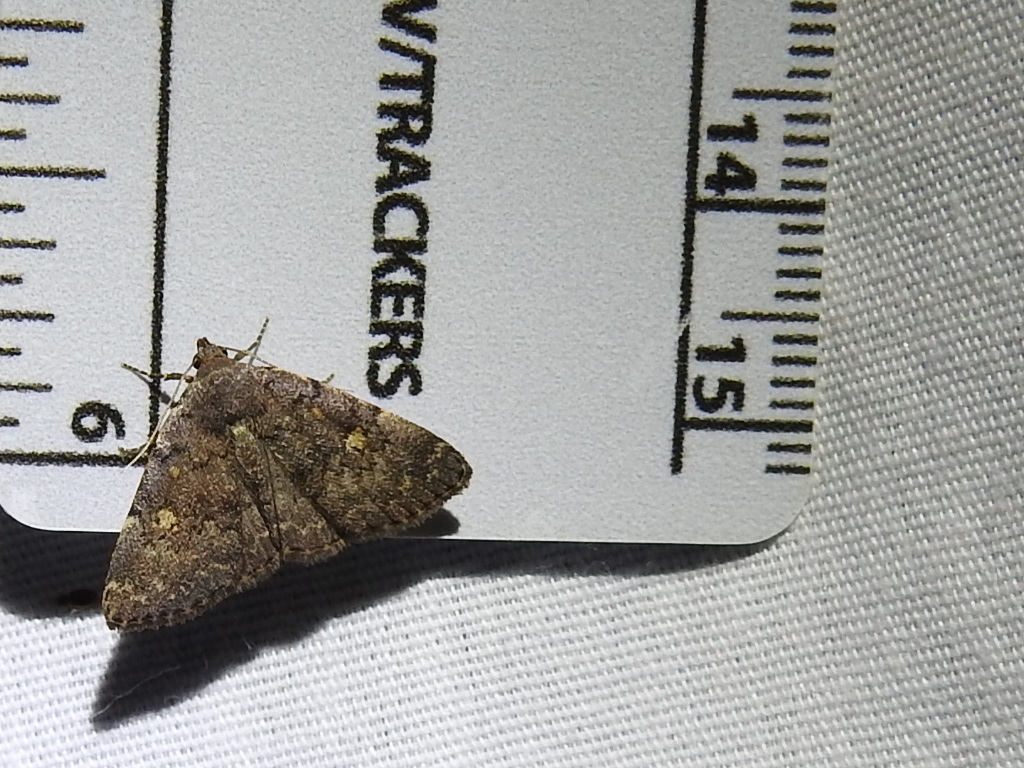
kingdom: Animalia
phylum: Arthropoda
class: Insecta
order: Lepidoptera
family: Erebidae
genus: Idia
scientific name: Idia aemula
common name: Common idia moth
